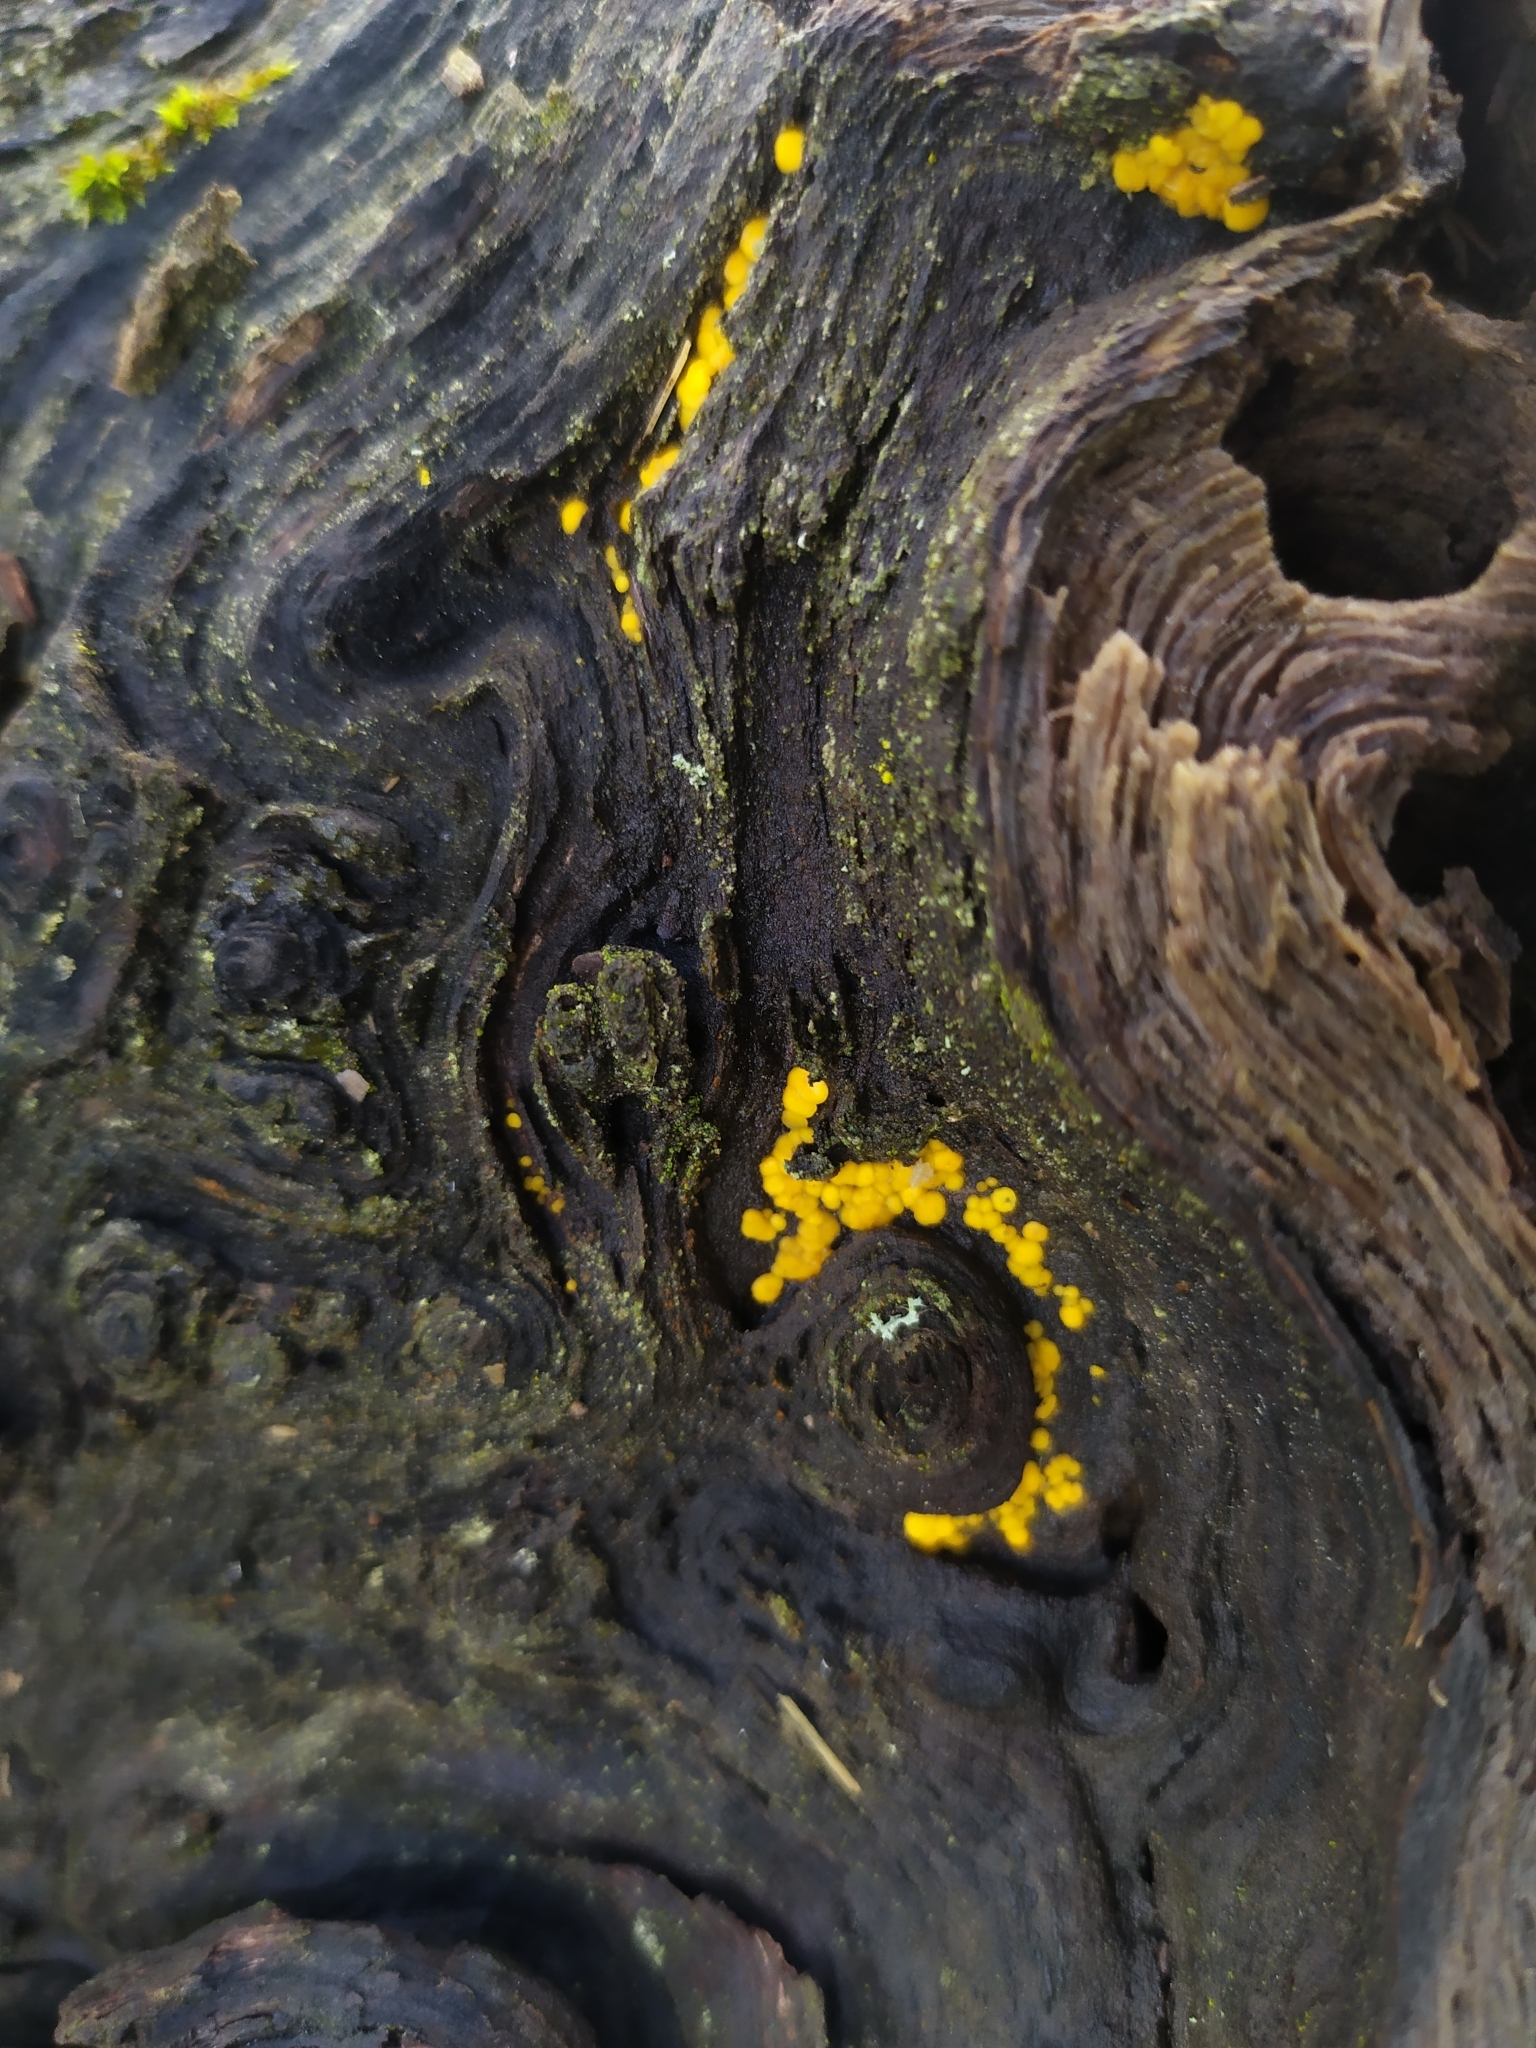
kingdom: Fungi
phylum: Ascomycota
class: Leotiomycetes
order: Helotiales
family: Pezizellaceae
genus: Calycina
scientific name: Calycina citrina
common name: Yellow fairy cups
